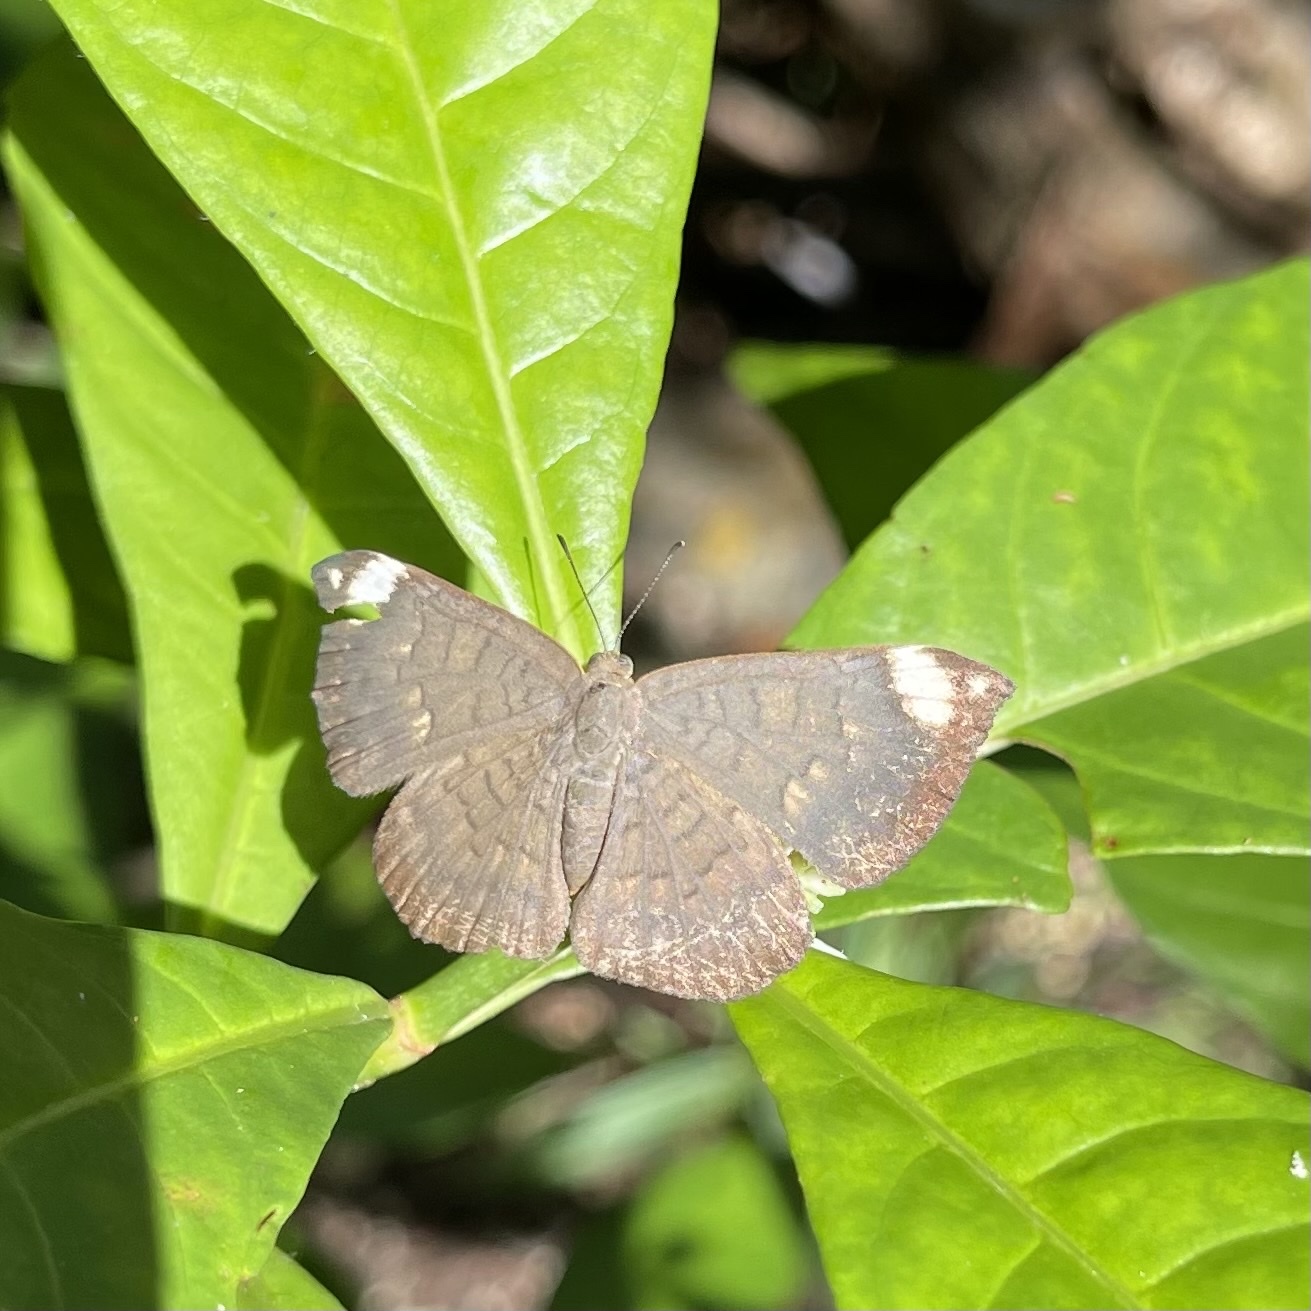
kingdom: Animalia
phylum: Arthropoda
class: Insecta
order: Lepidoptera
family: Lycaenidae
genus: Emesis
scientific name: Emesis aurimna
